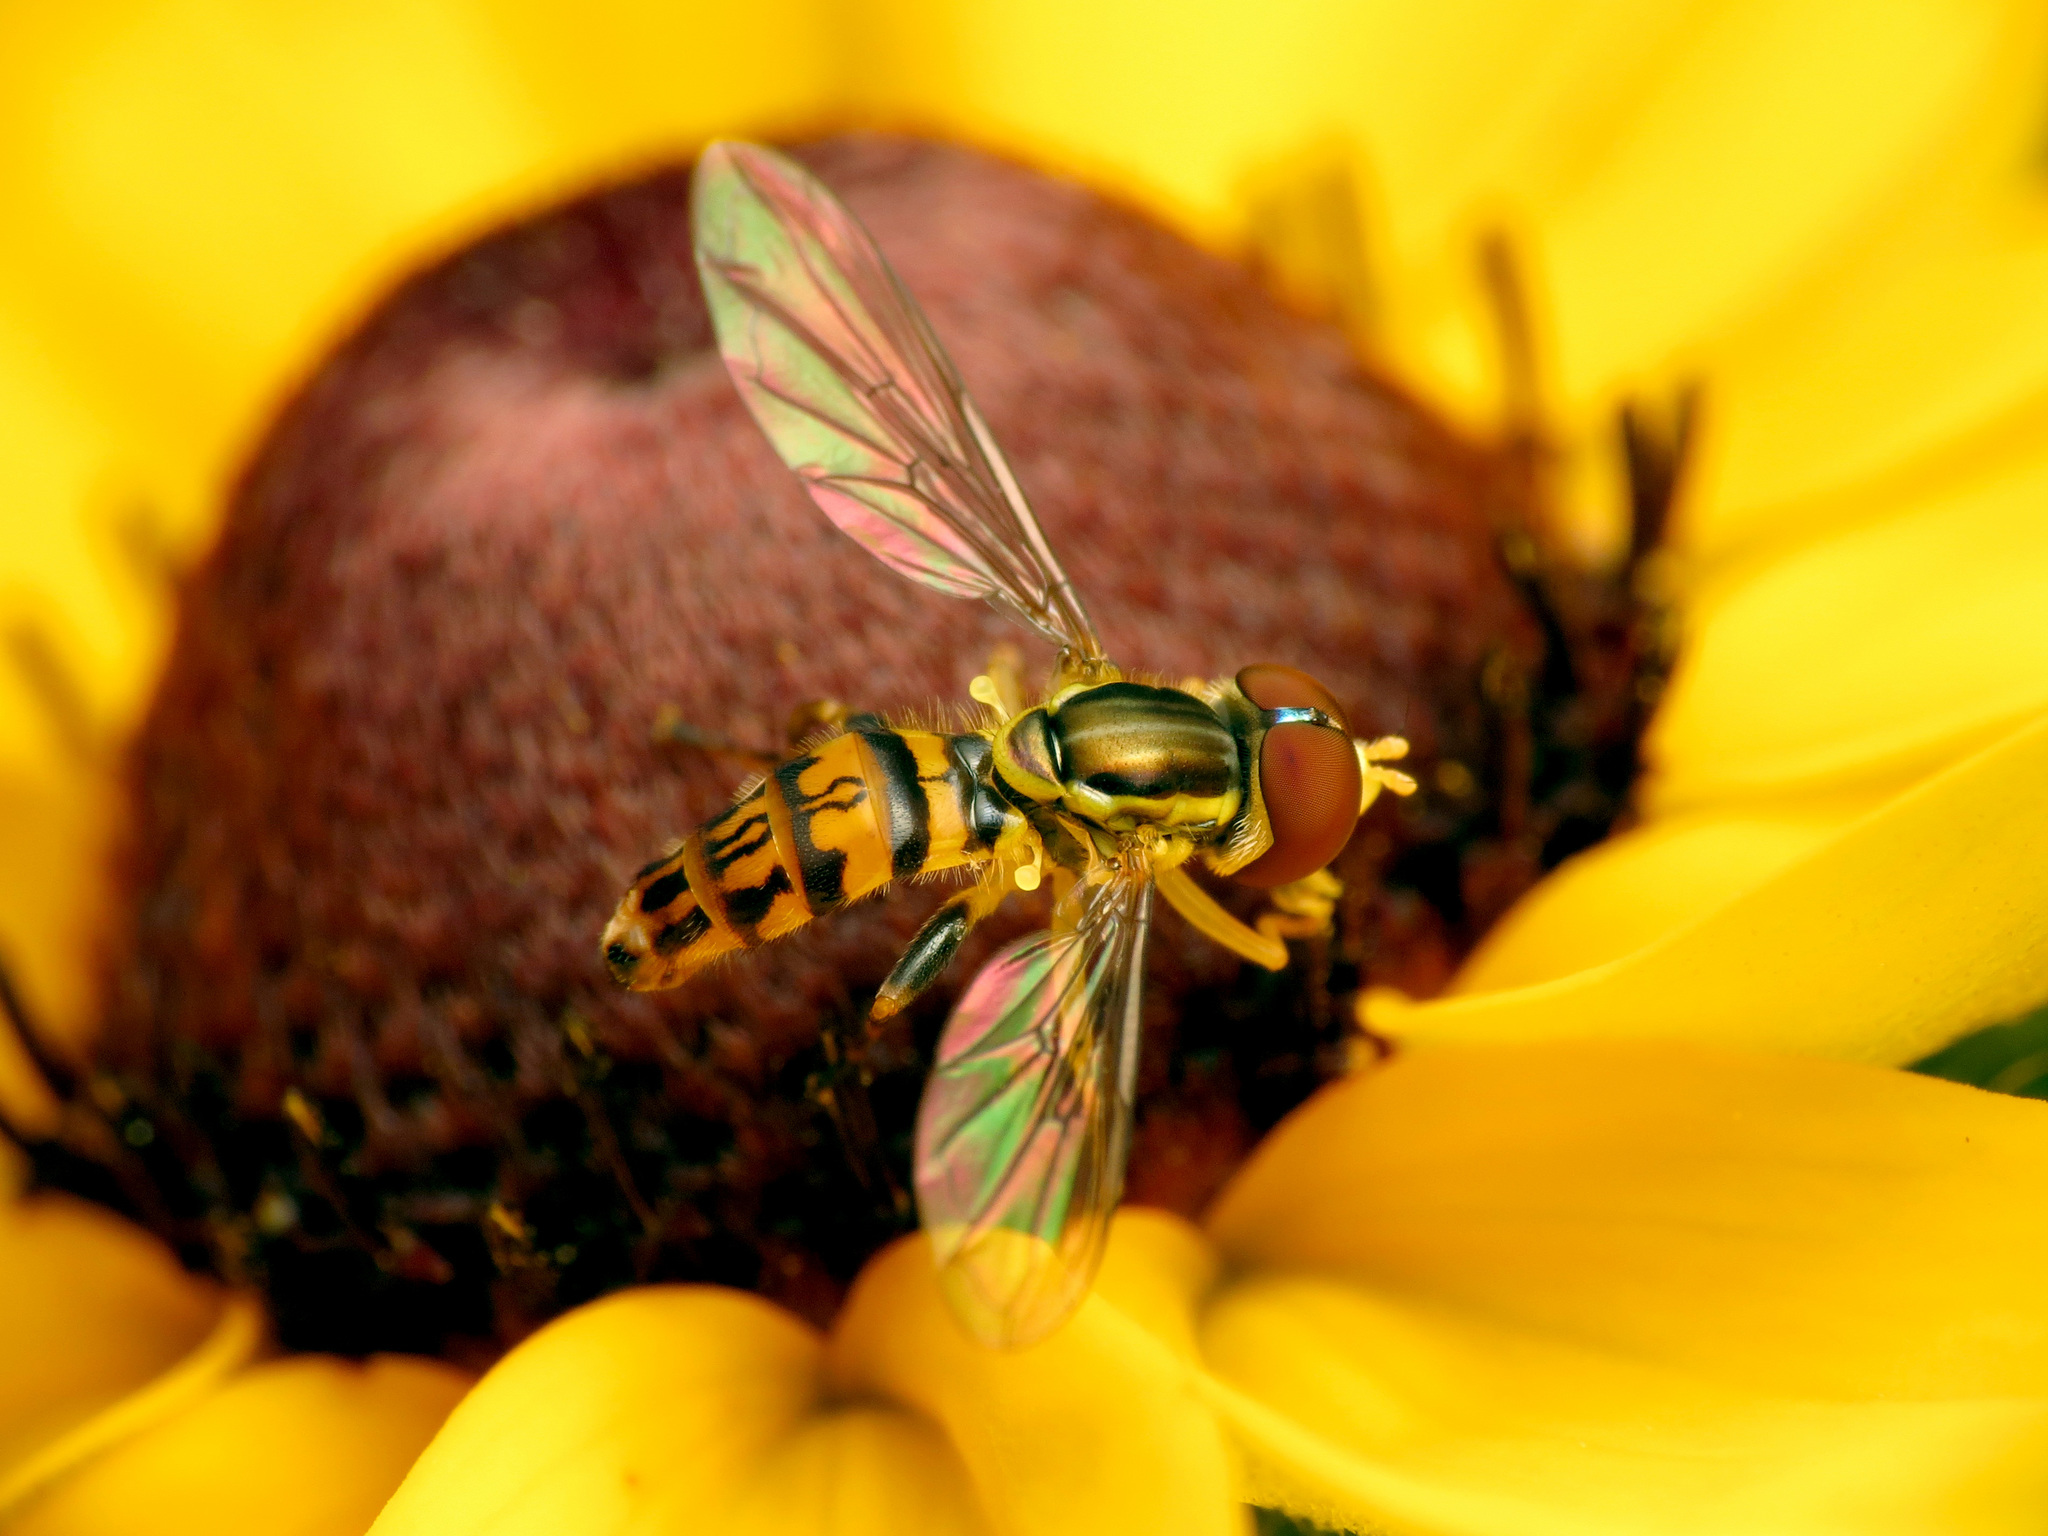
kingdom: Animalia
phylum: Arthropoda
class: Insecta
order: Diptera
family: Syrphidae
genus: Toxomerus
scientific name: Toxomerus geminatus
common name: Eastern calligrapher
